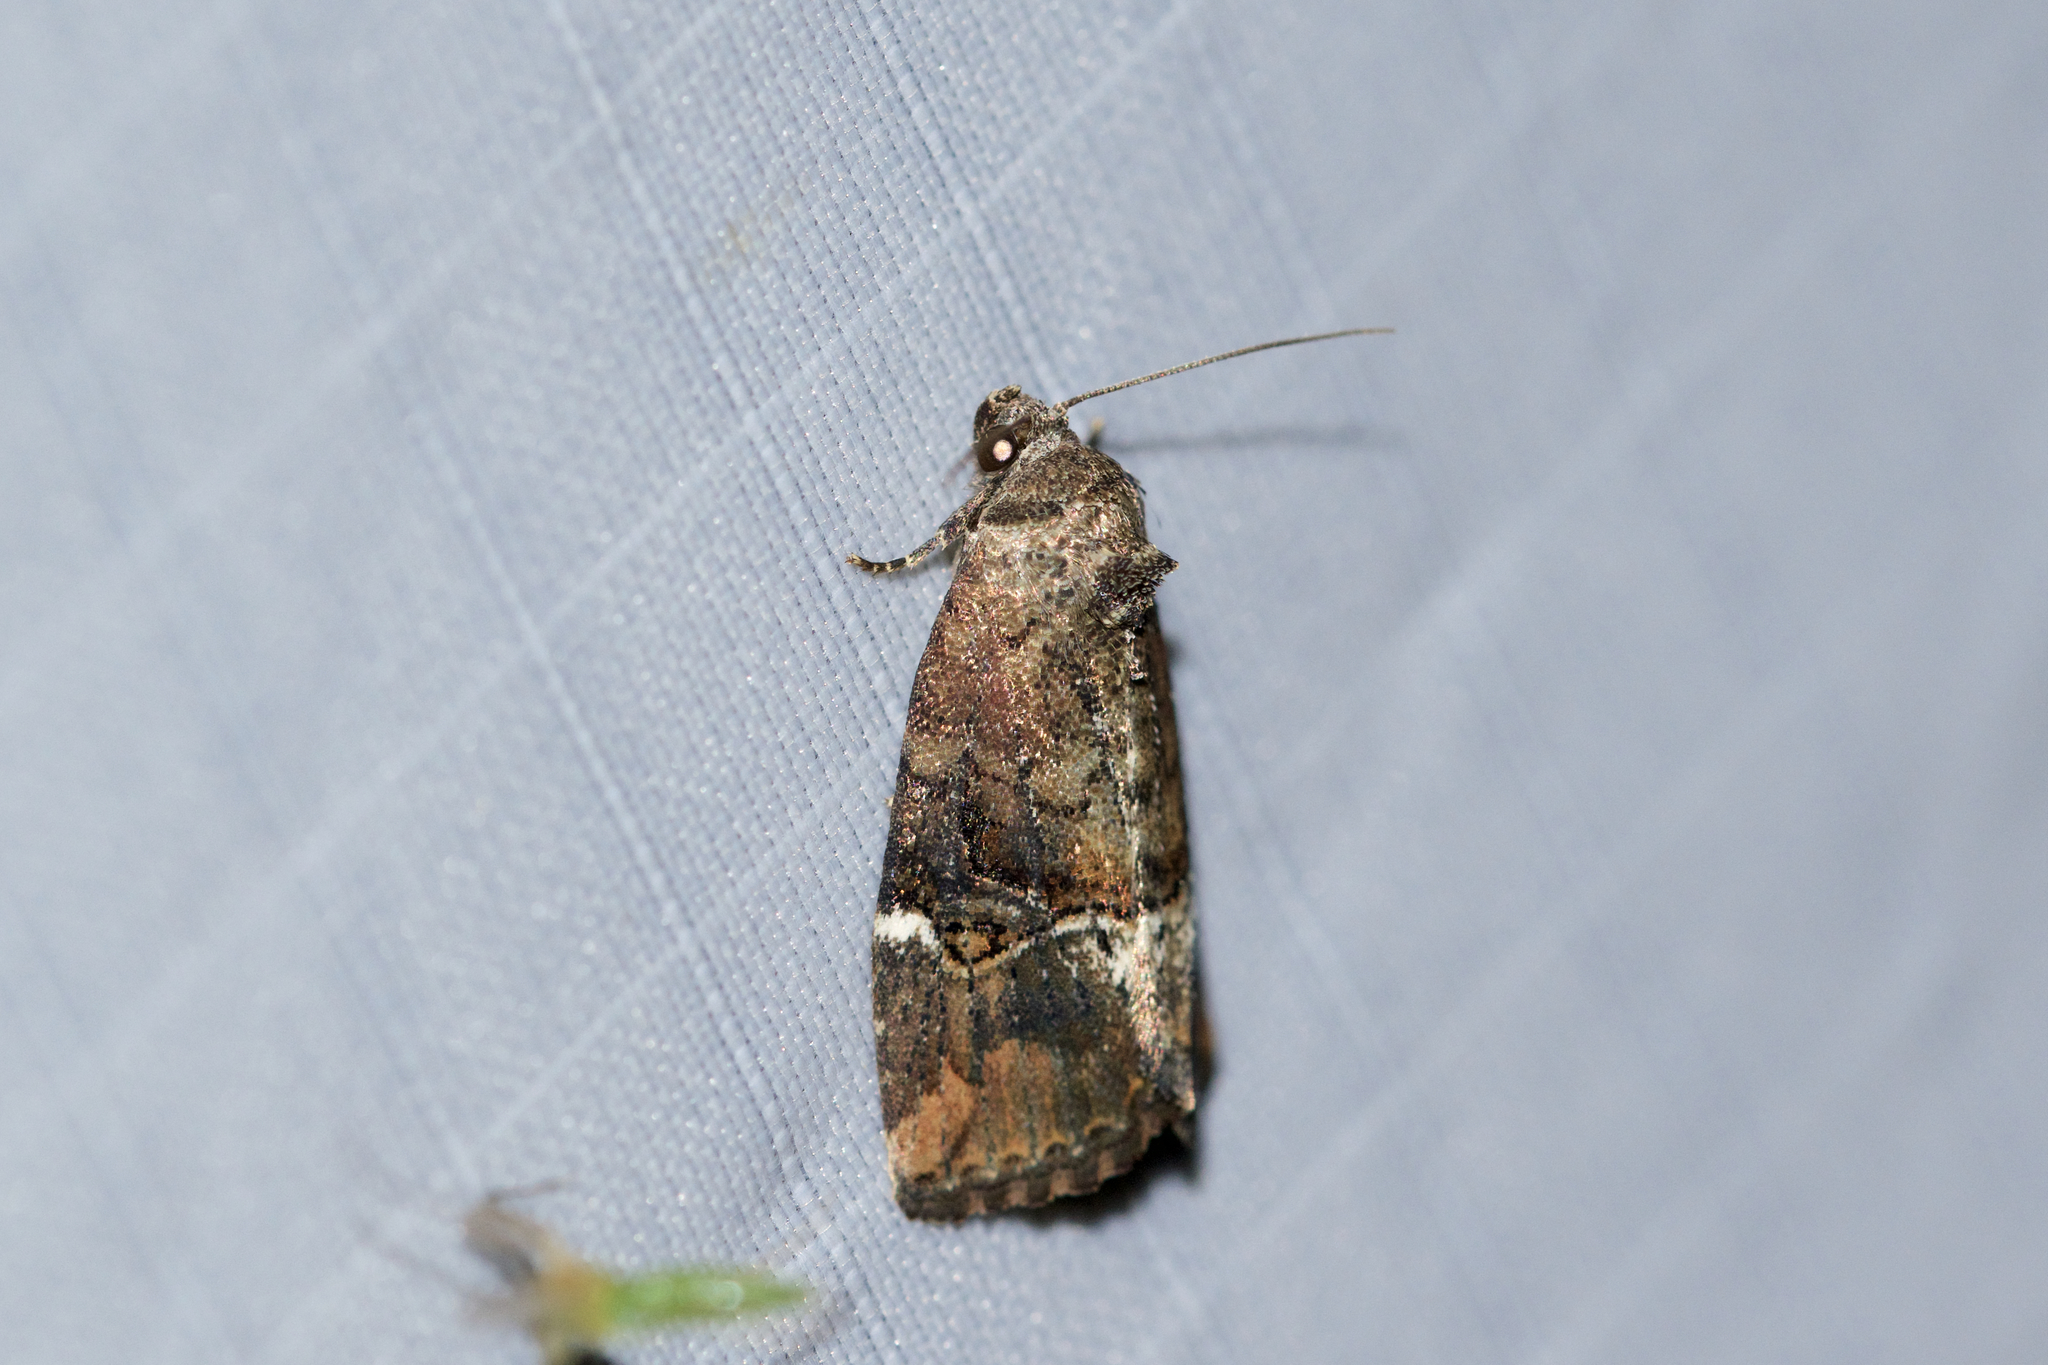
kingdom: Animalia
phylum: Arthropoda
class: Insecta
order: Lepidoptera
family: Noctuidae
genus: Elaphria
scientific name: Elaphria versicolor
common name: Fir harlequin
